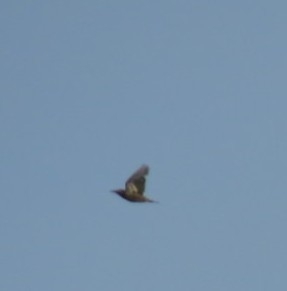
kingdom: Animalia
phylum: Chordata
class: Aves
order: Passeriformes
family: Sturnidae
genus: Sturnus
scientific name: Sturnus vulgaris
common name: Common starling
